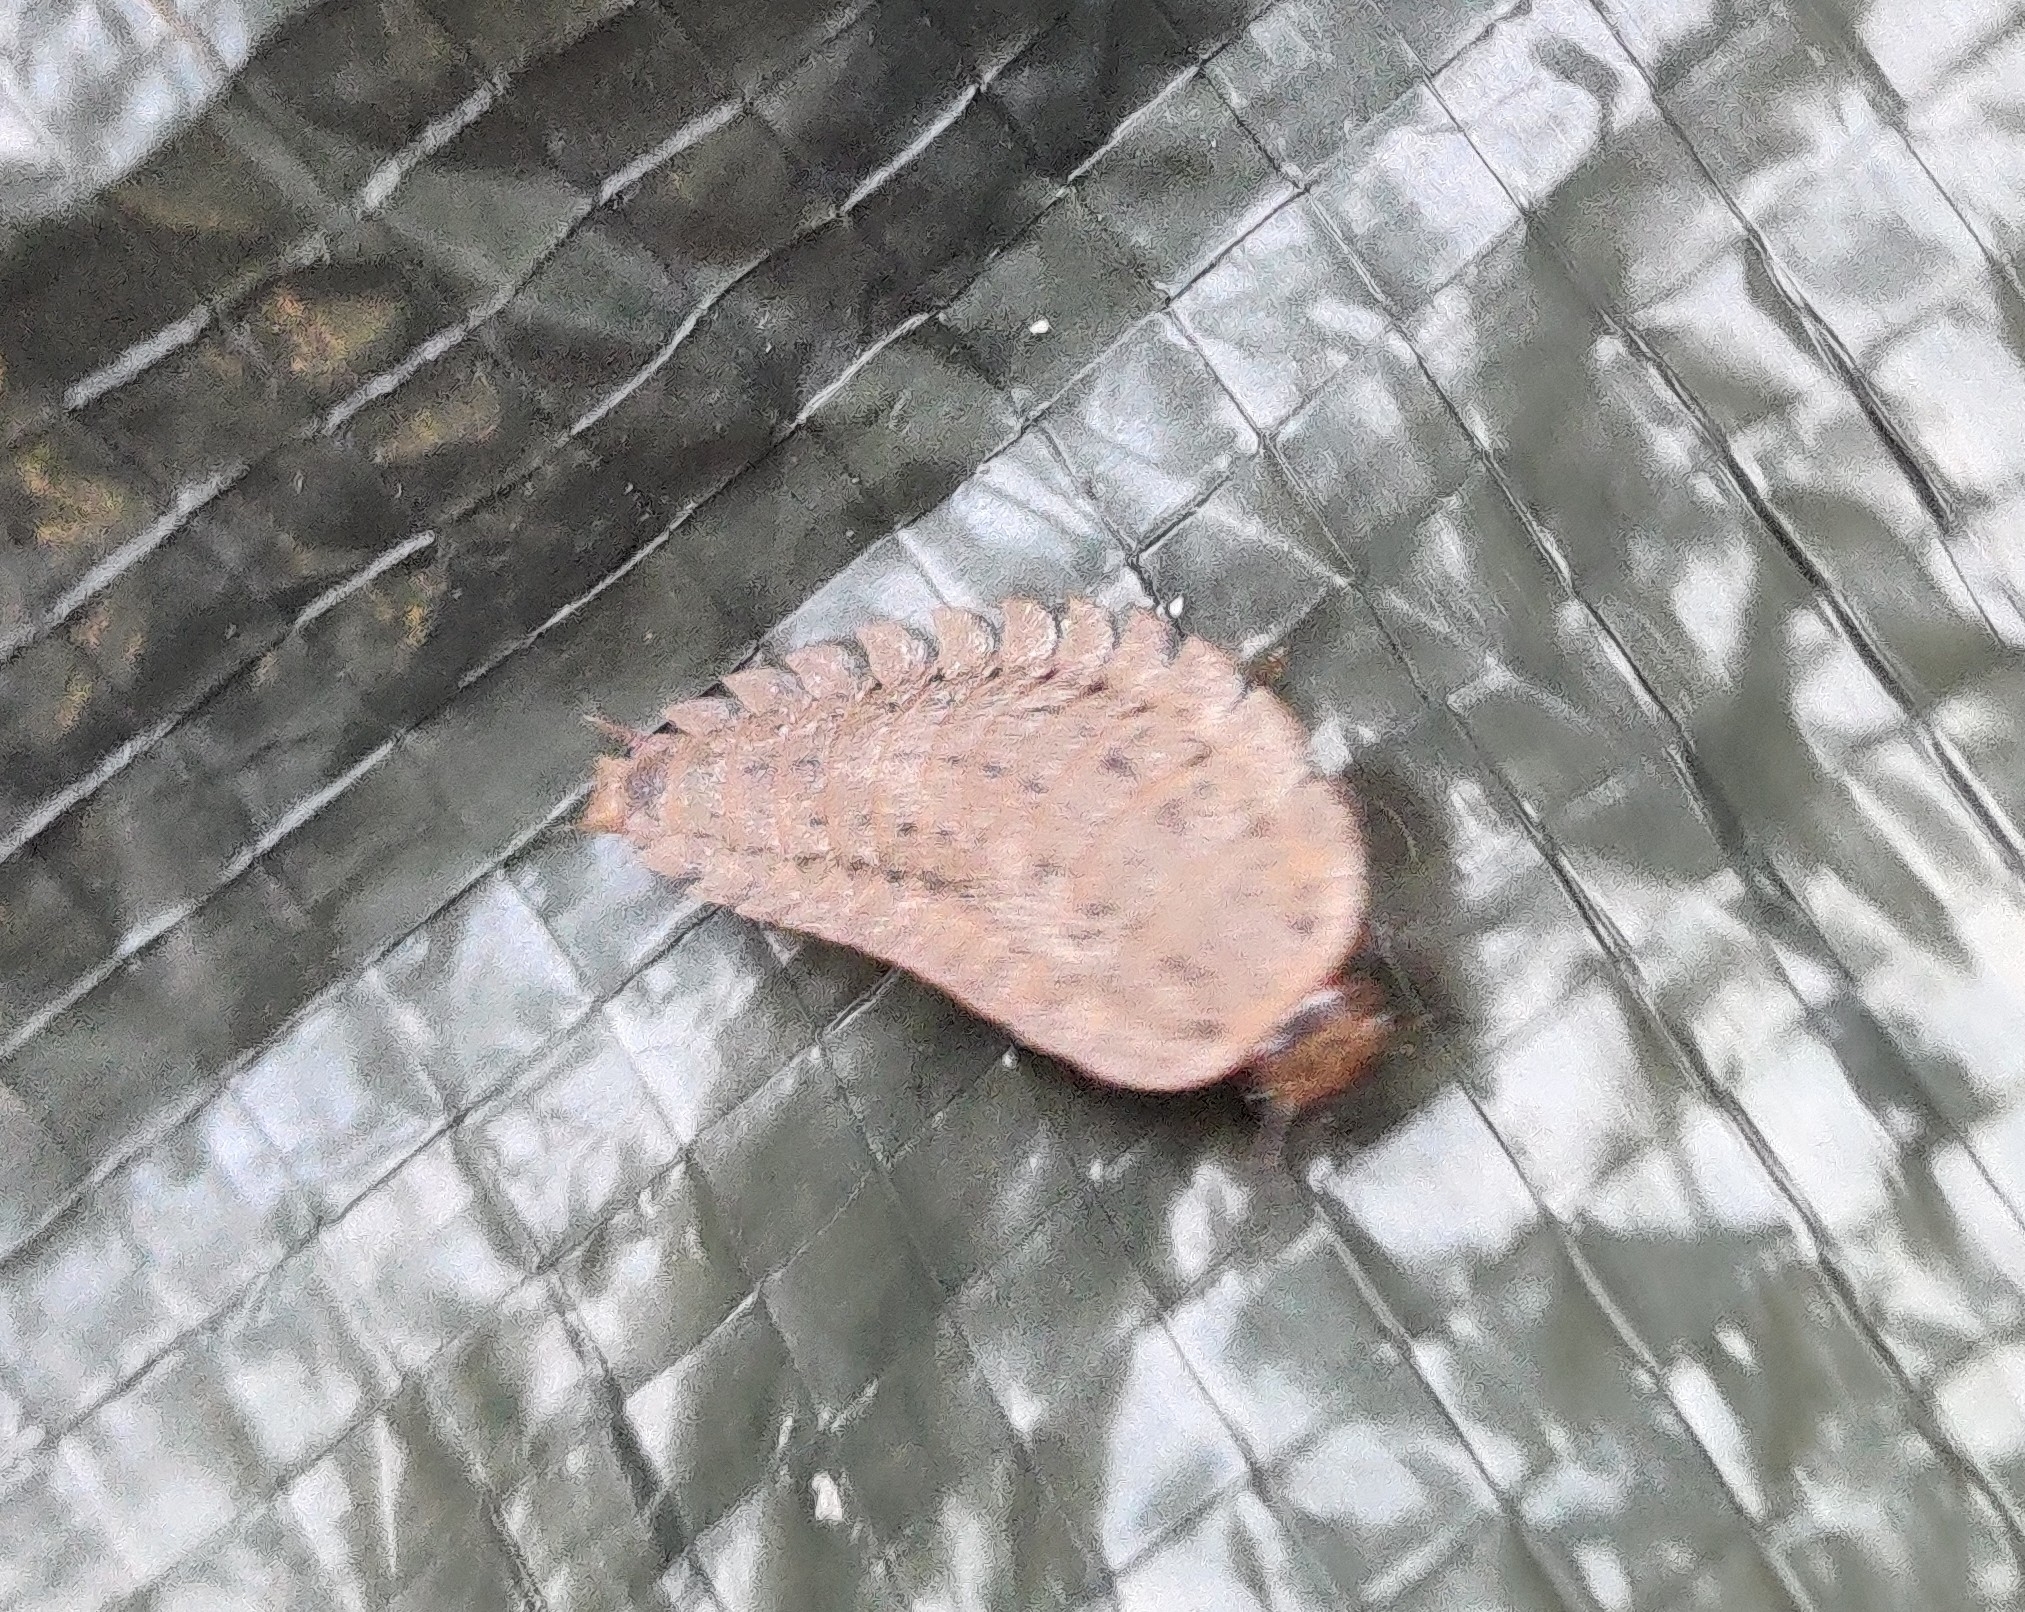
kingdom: Animalia
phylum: Arthropoda
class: Insecta
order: Coleoptera
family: Staphylinidae
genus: Silpha
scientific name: Silpha obscura
